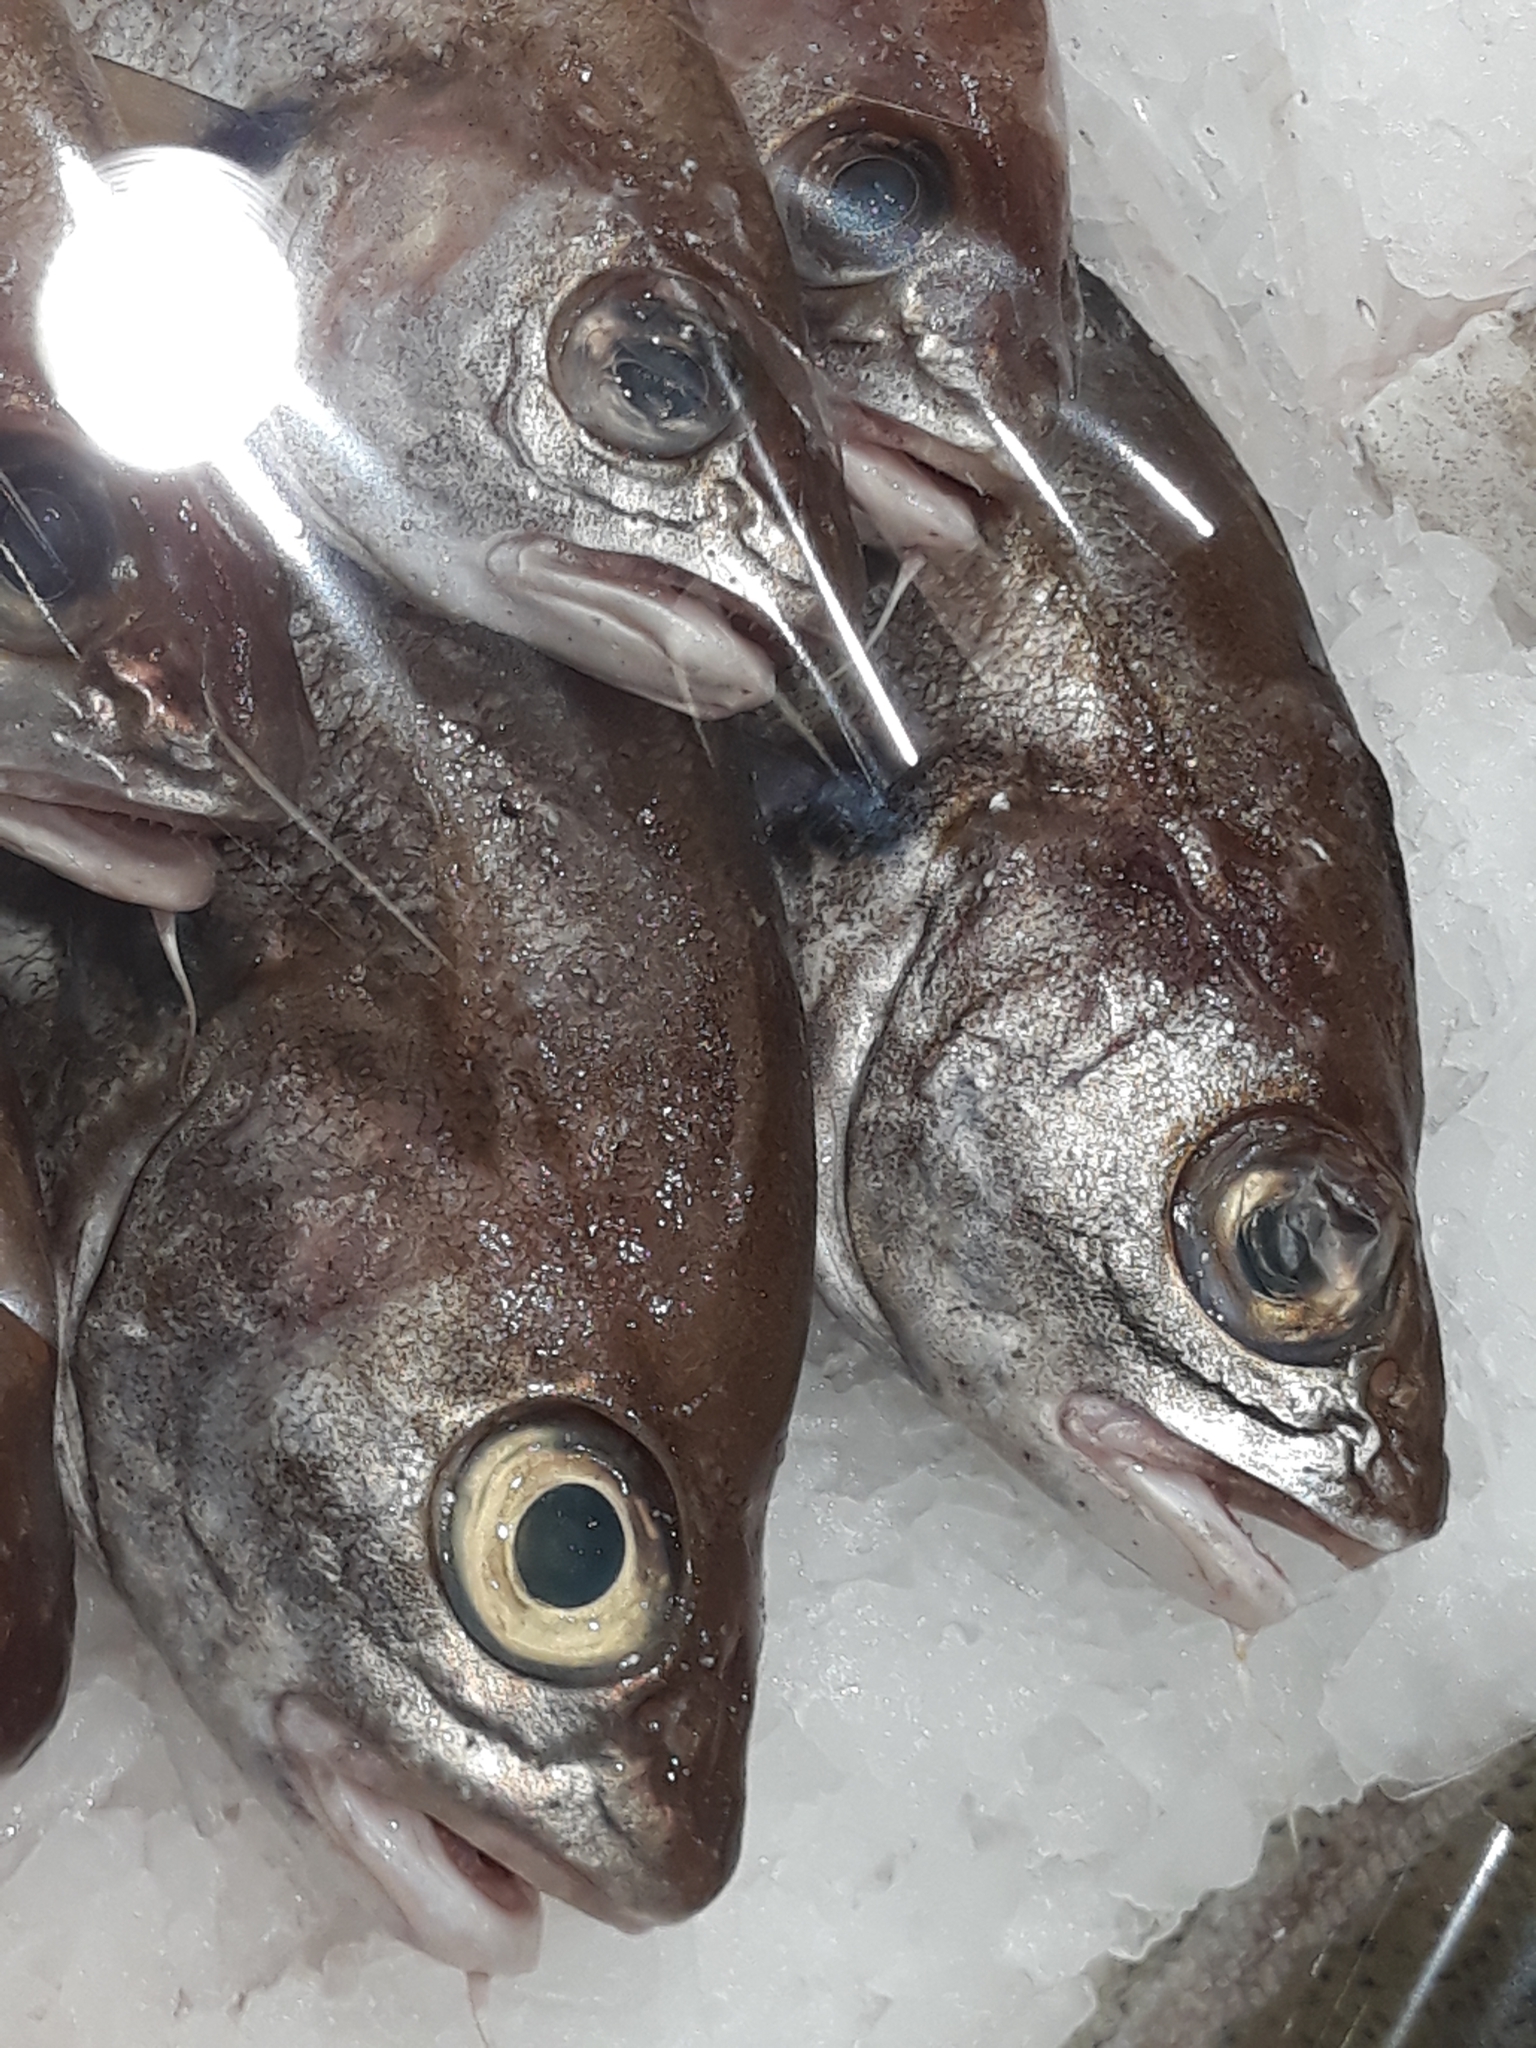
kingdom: Animalia
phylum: Chordata
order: Gadiformes
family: Gadidae
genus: Trisopterus
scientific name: Trisopterus luscus
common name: Bib
